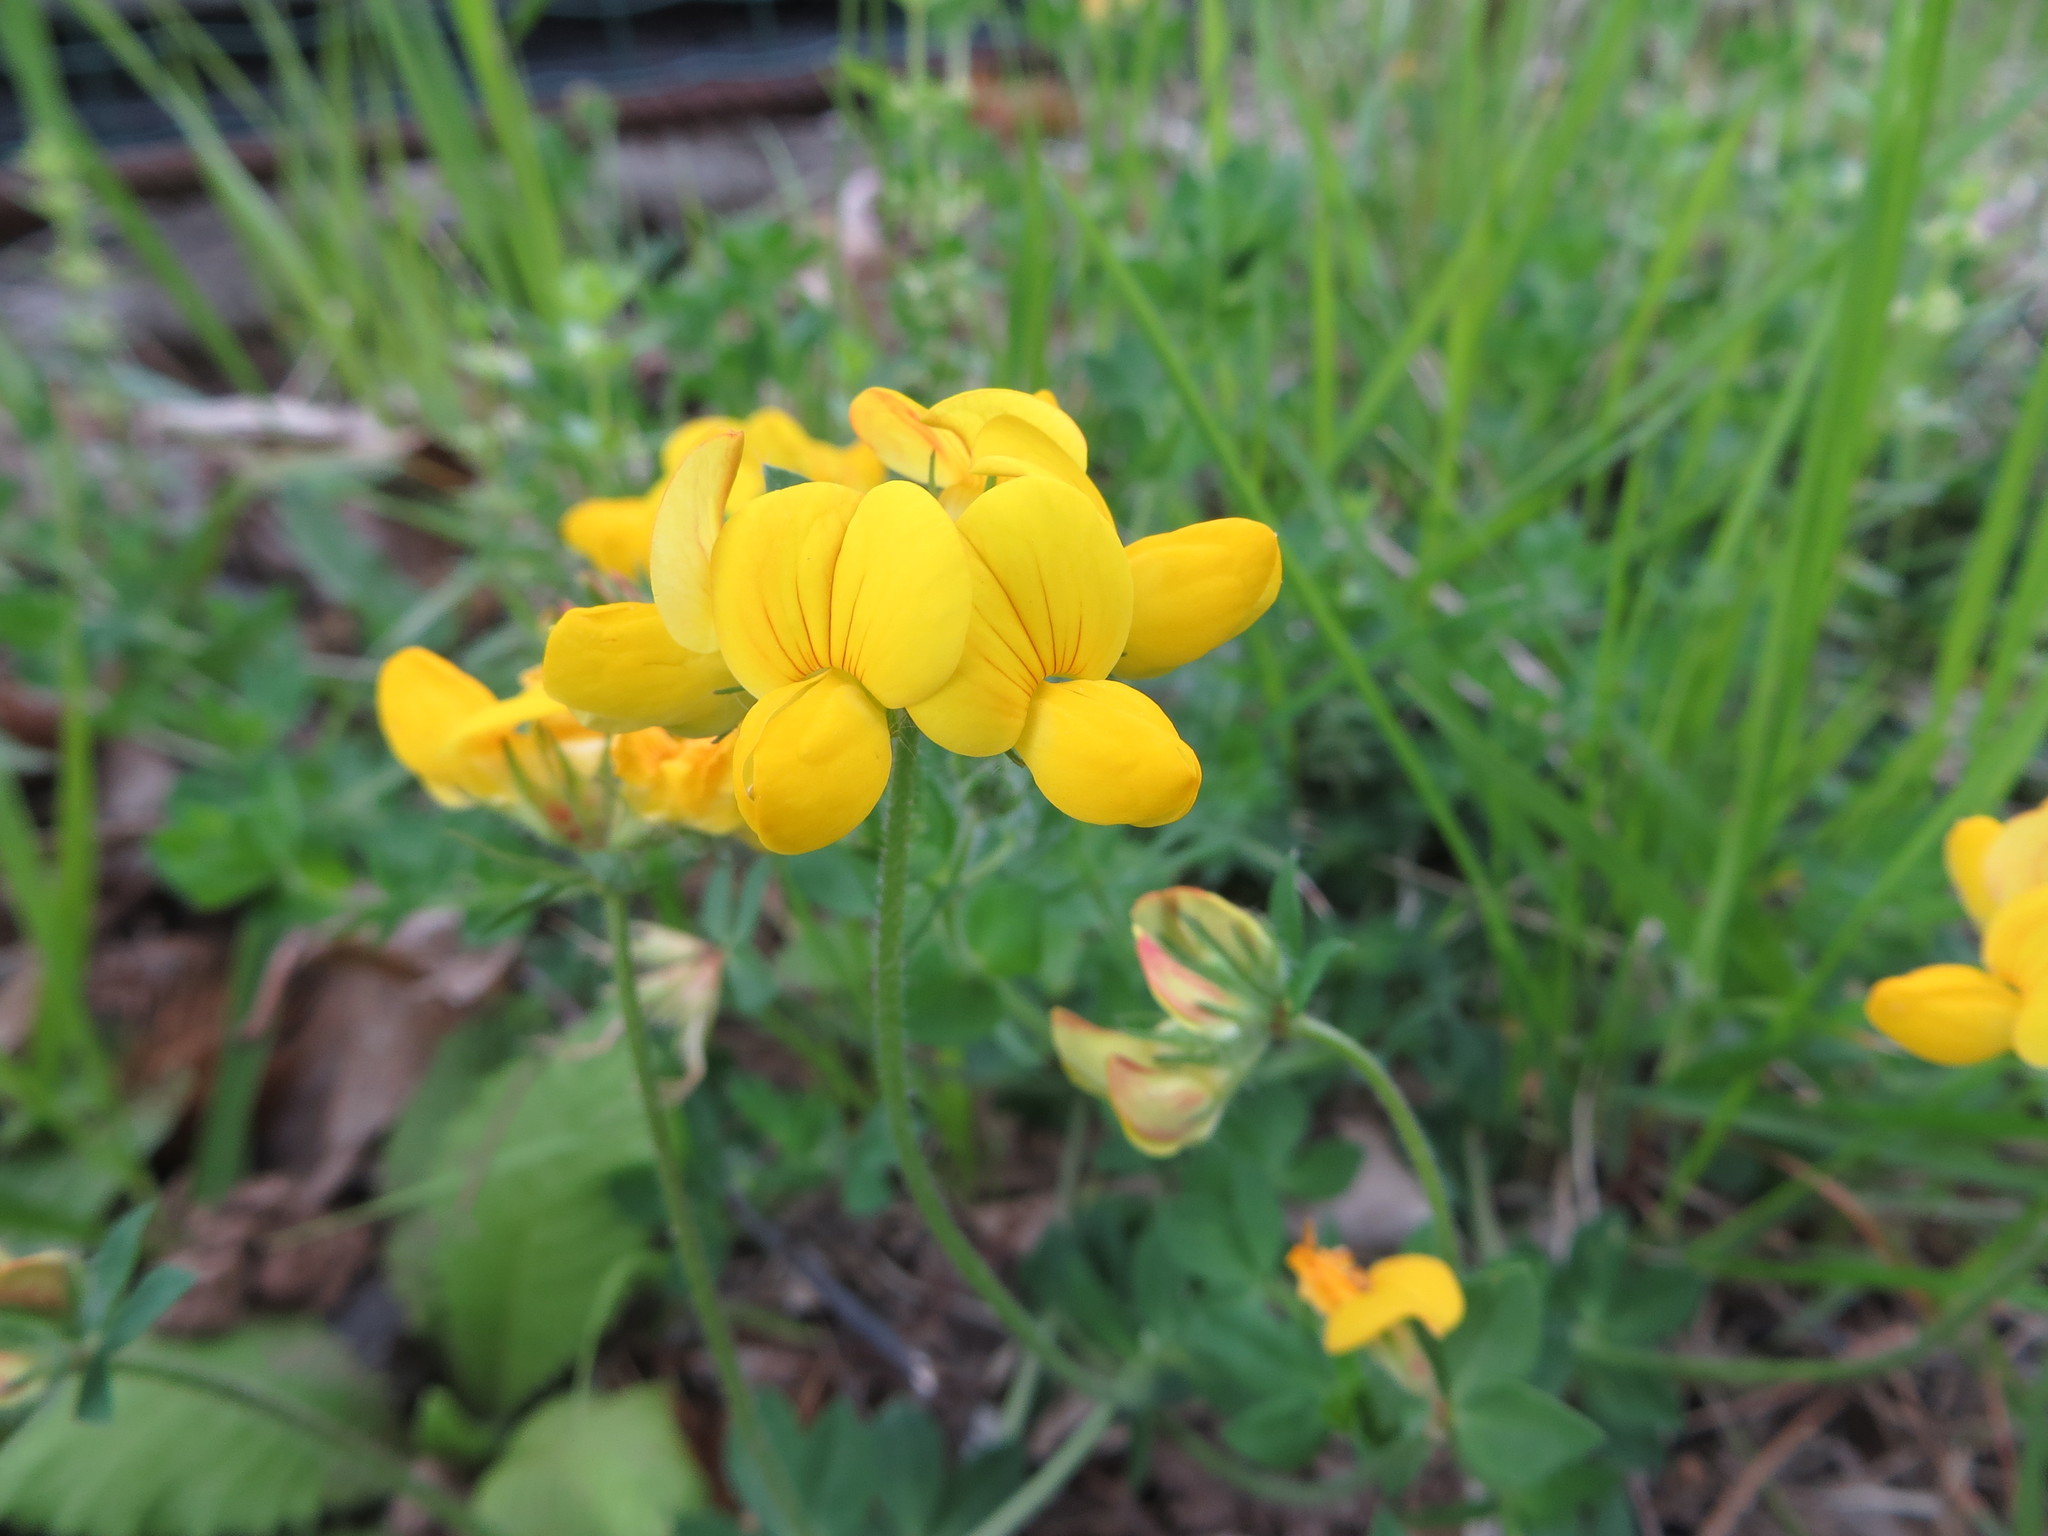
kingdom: Plantae
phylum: Tracheophyta
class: Magnoliopsida
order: Fabales
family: Fabaceae
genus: Lotus
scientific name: Lotus corniculatus
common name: Common bird's-foot-trefoil
